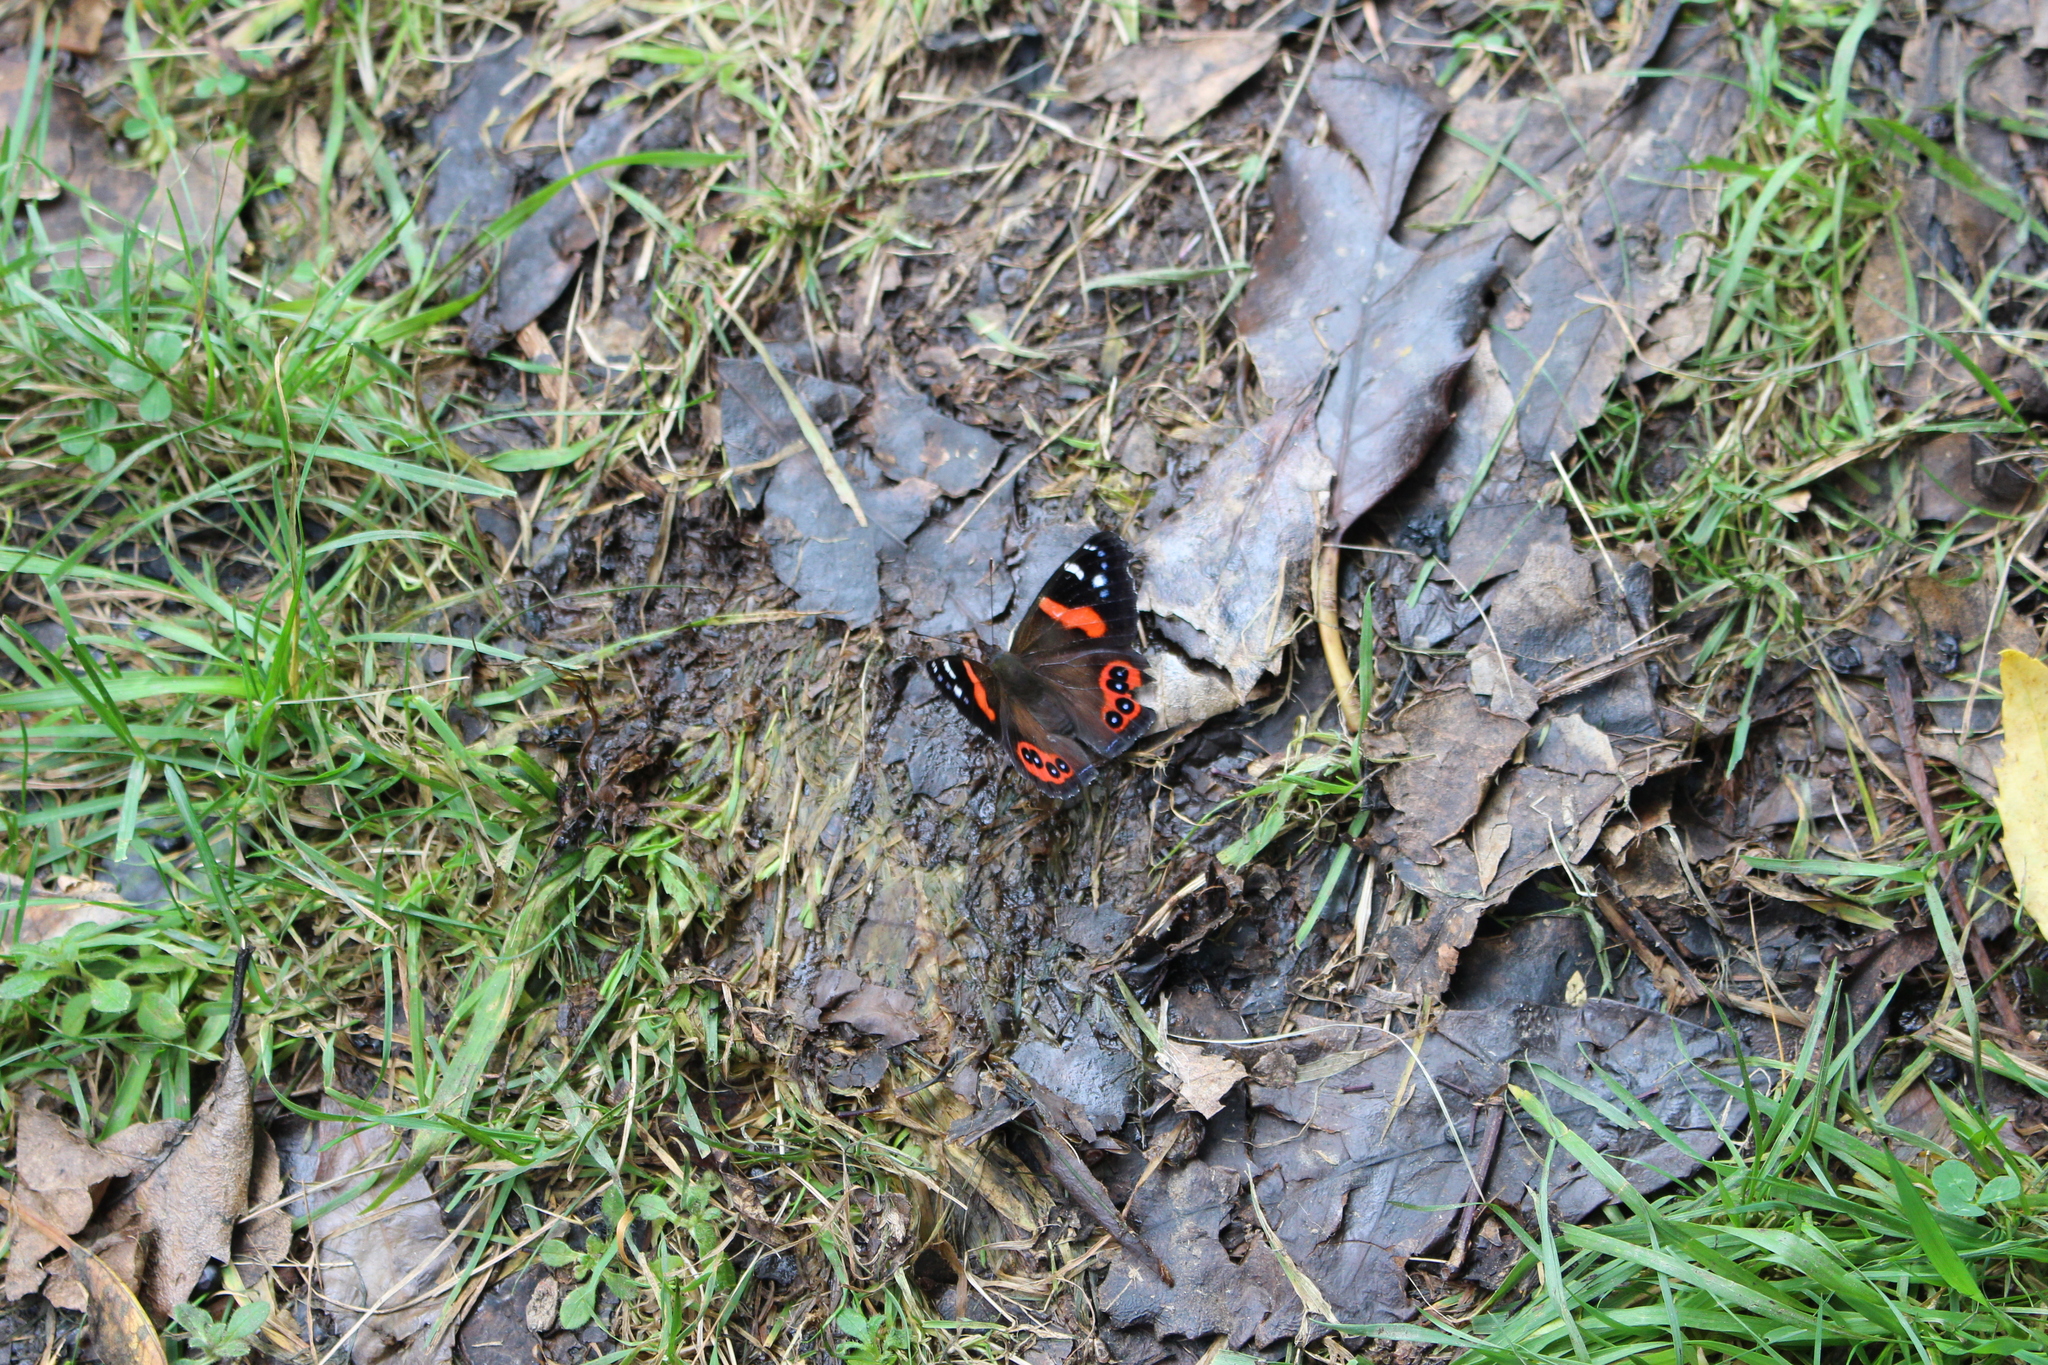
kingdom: Animalia
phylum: Arthropoda
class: Insecta
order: Lepidoptera
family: Nymphalidae
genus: Vanessa
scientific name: Vanessa gonerilla
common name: New zealand red admiral
